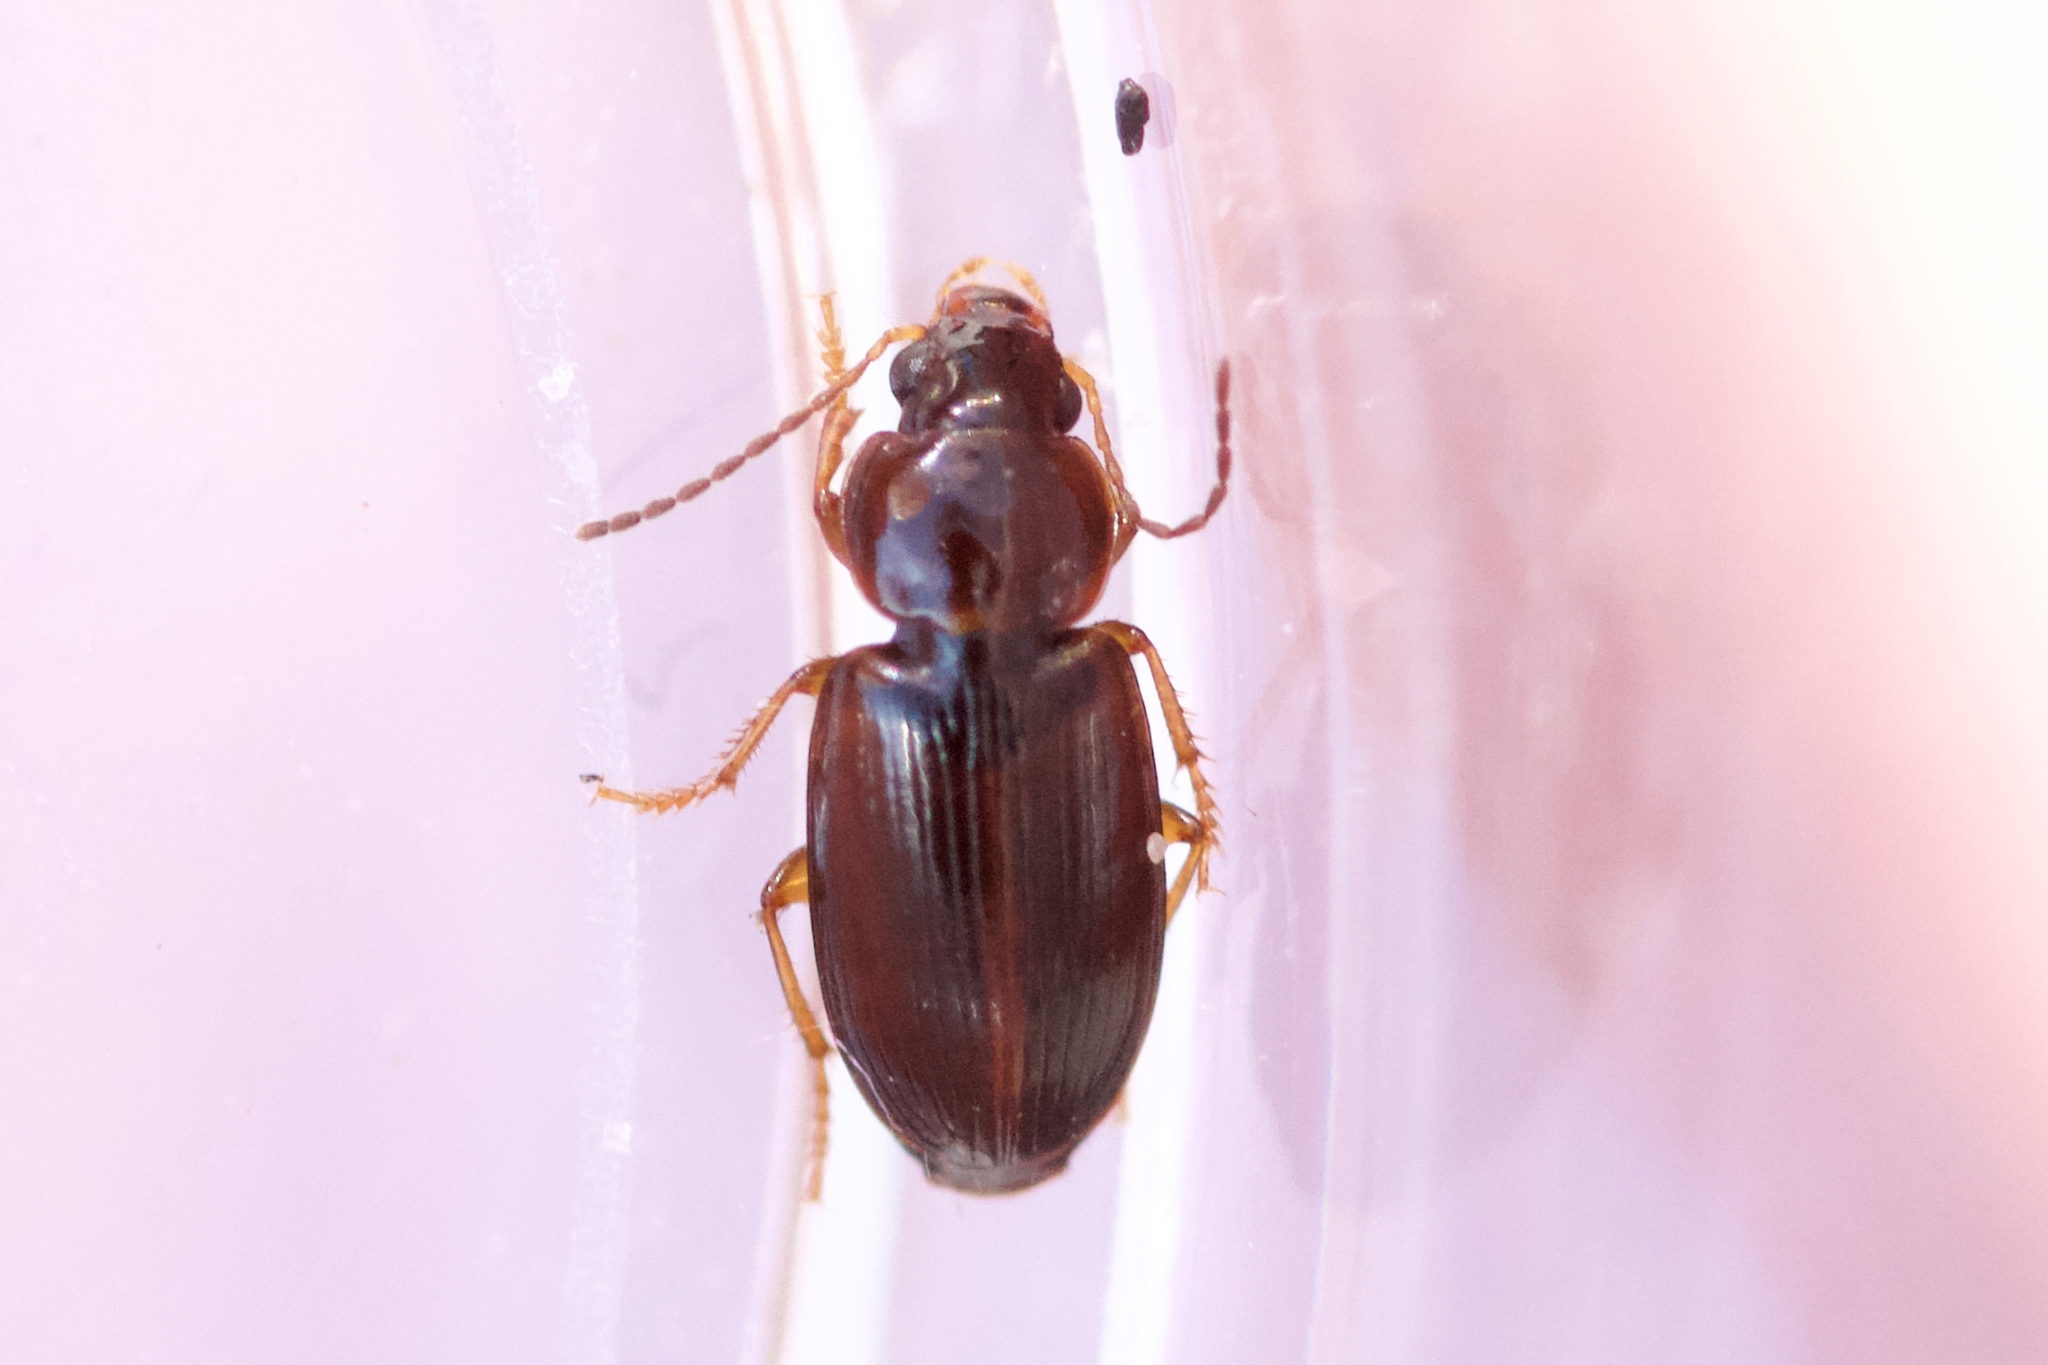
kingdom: Animalia
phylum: Arthropoda
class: Insecta
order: Coleoptera
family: Carabidae
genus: Agonoleptus
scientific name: Agonoleptus conjunctus
